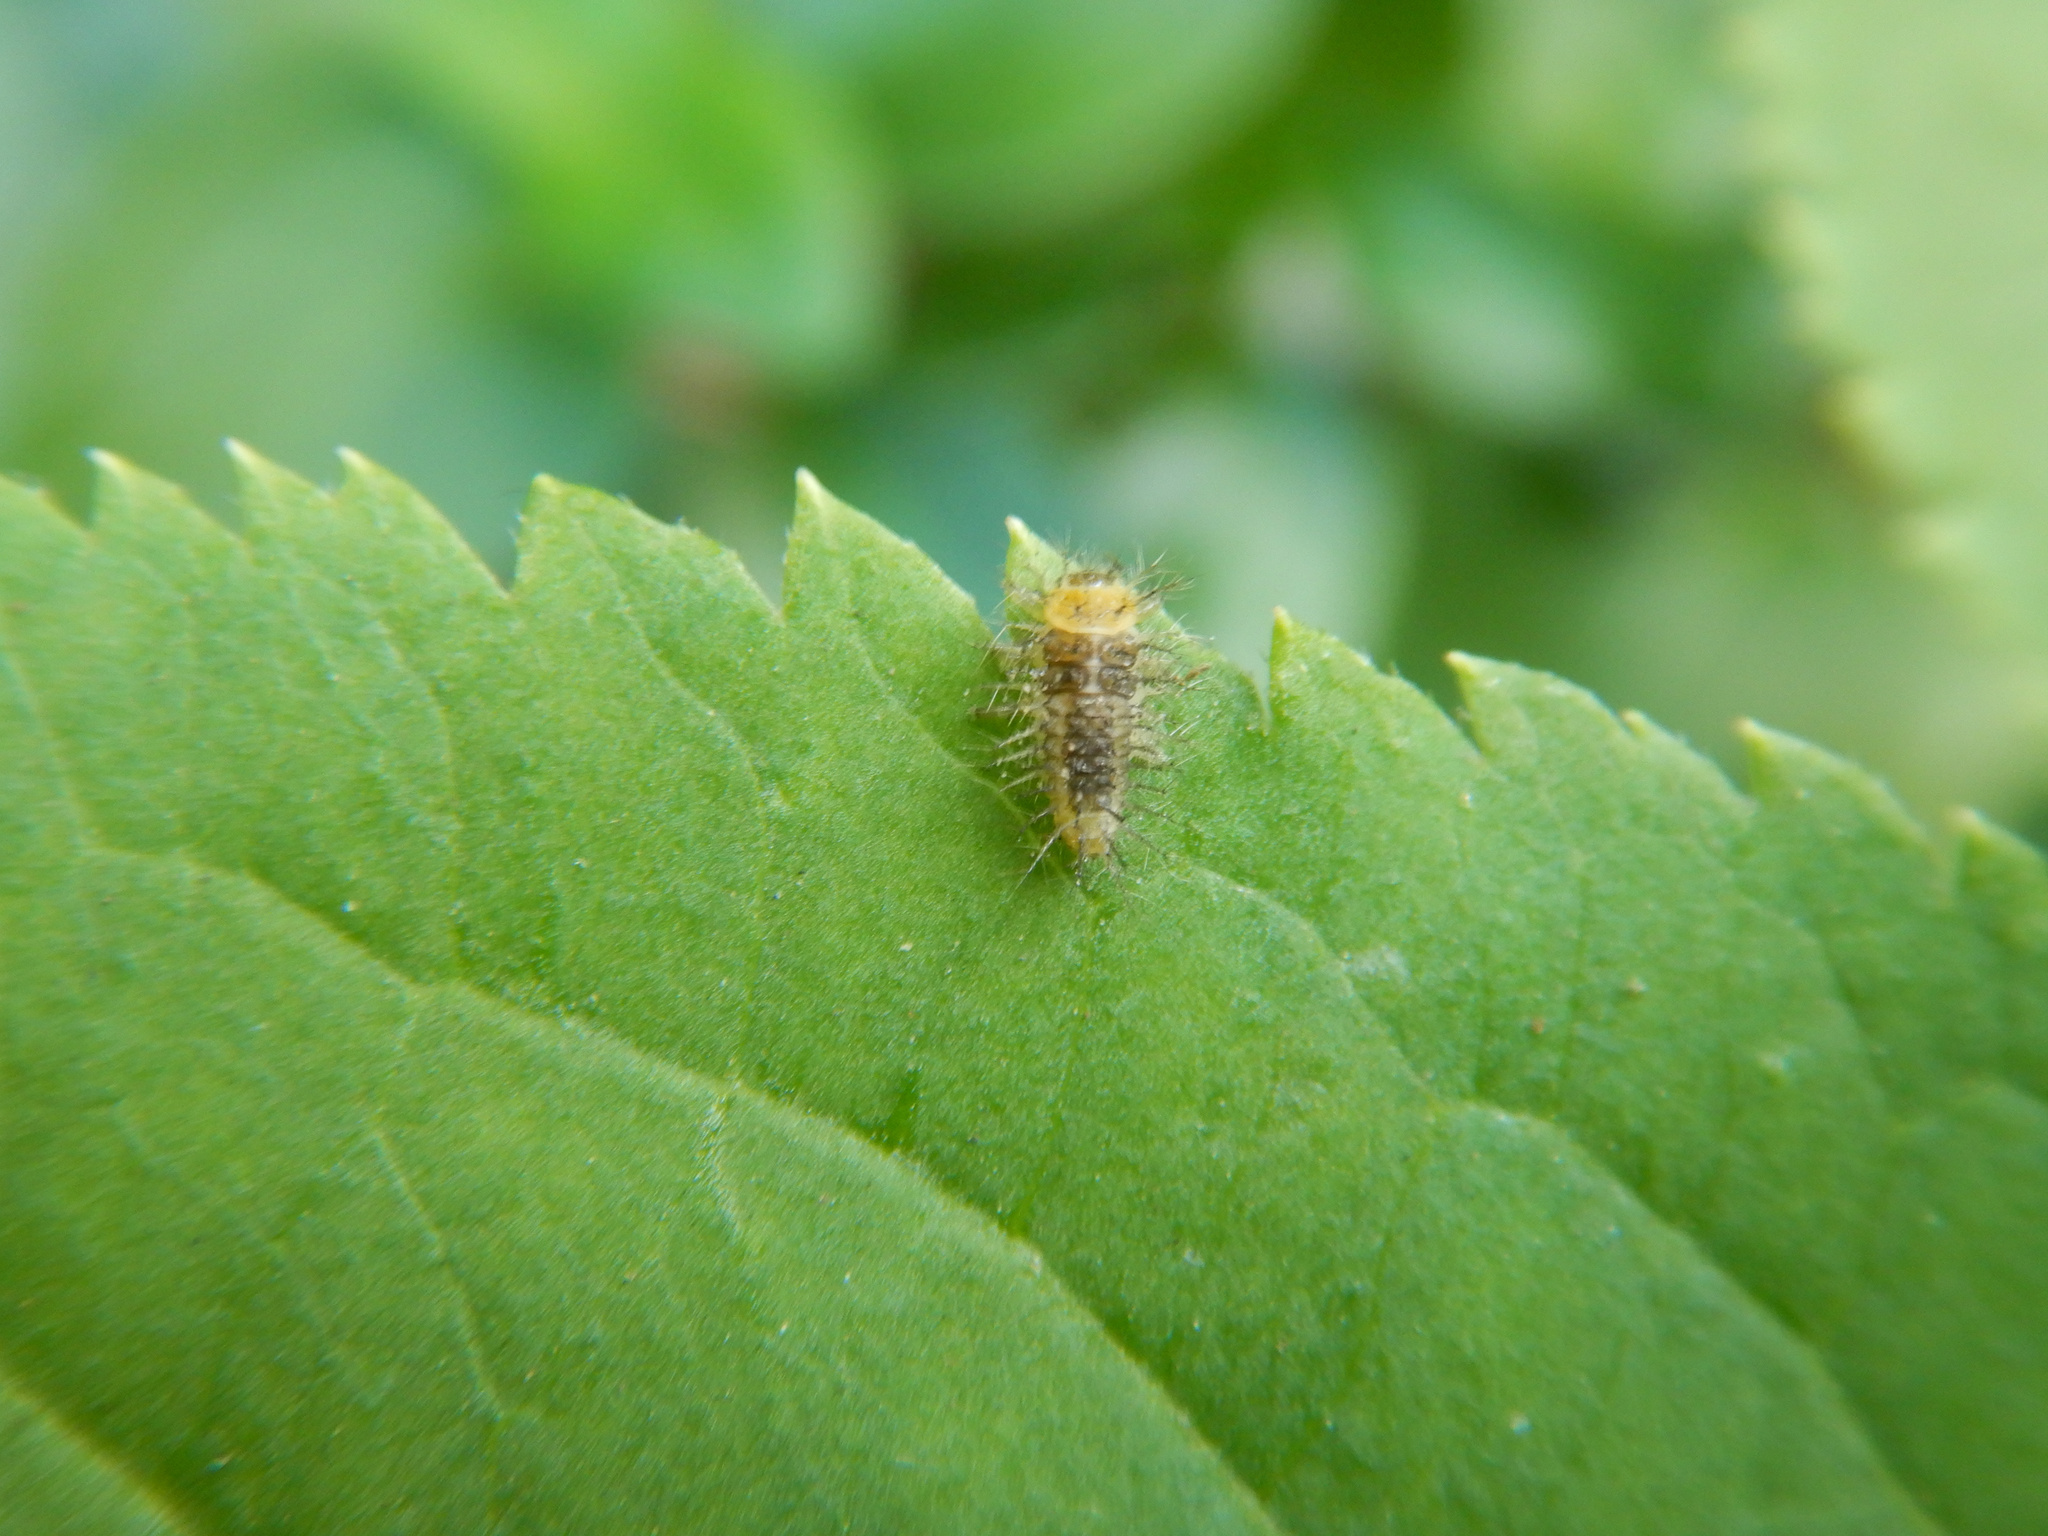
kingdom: Animalia
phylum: Arthropoda
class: Insecta
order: Coleoptera
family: Coccinellidae
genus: Halmus
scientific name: Halmus chalybeus
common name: Steel blue ladybird beetle
